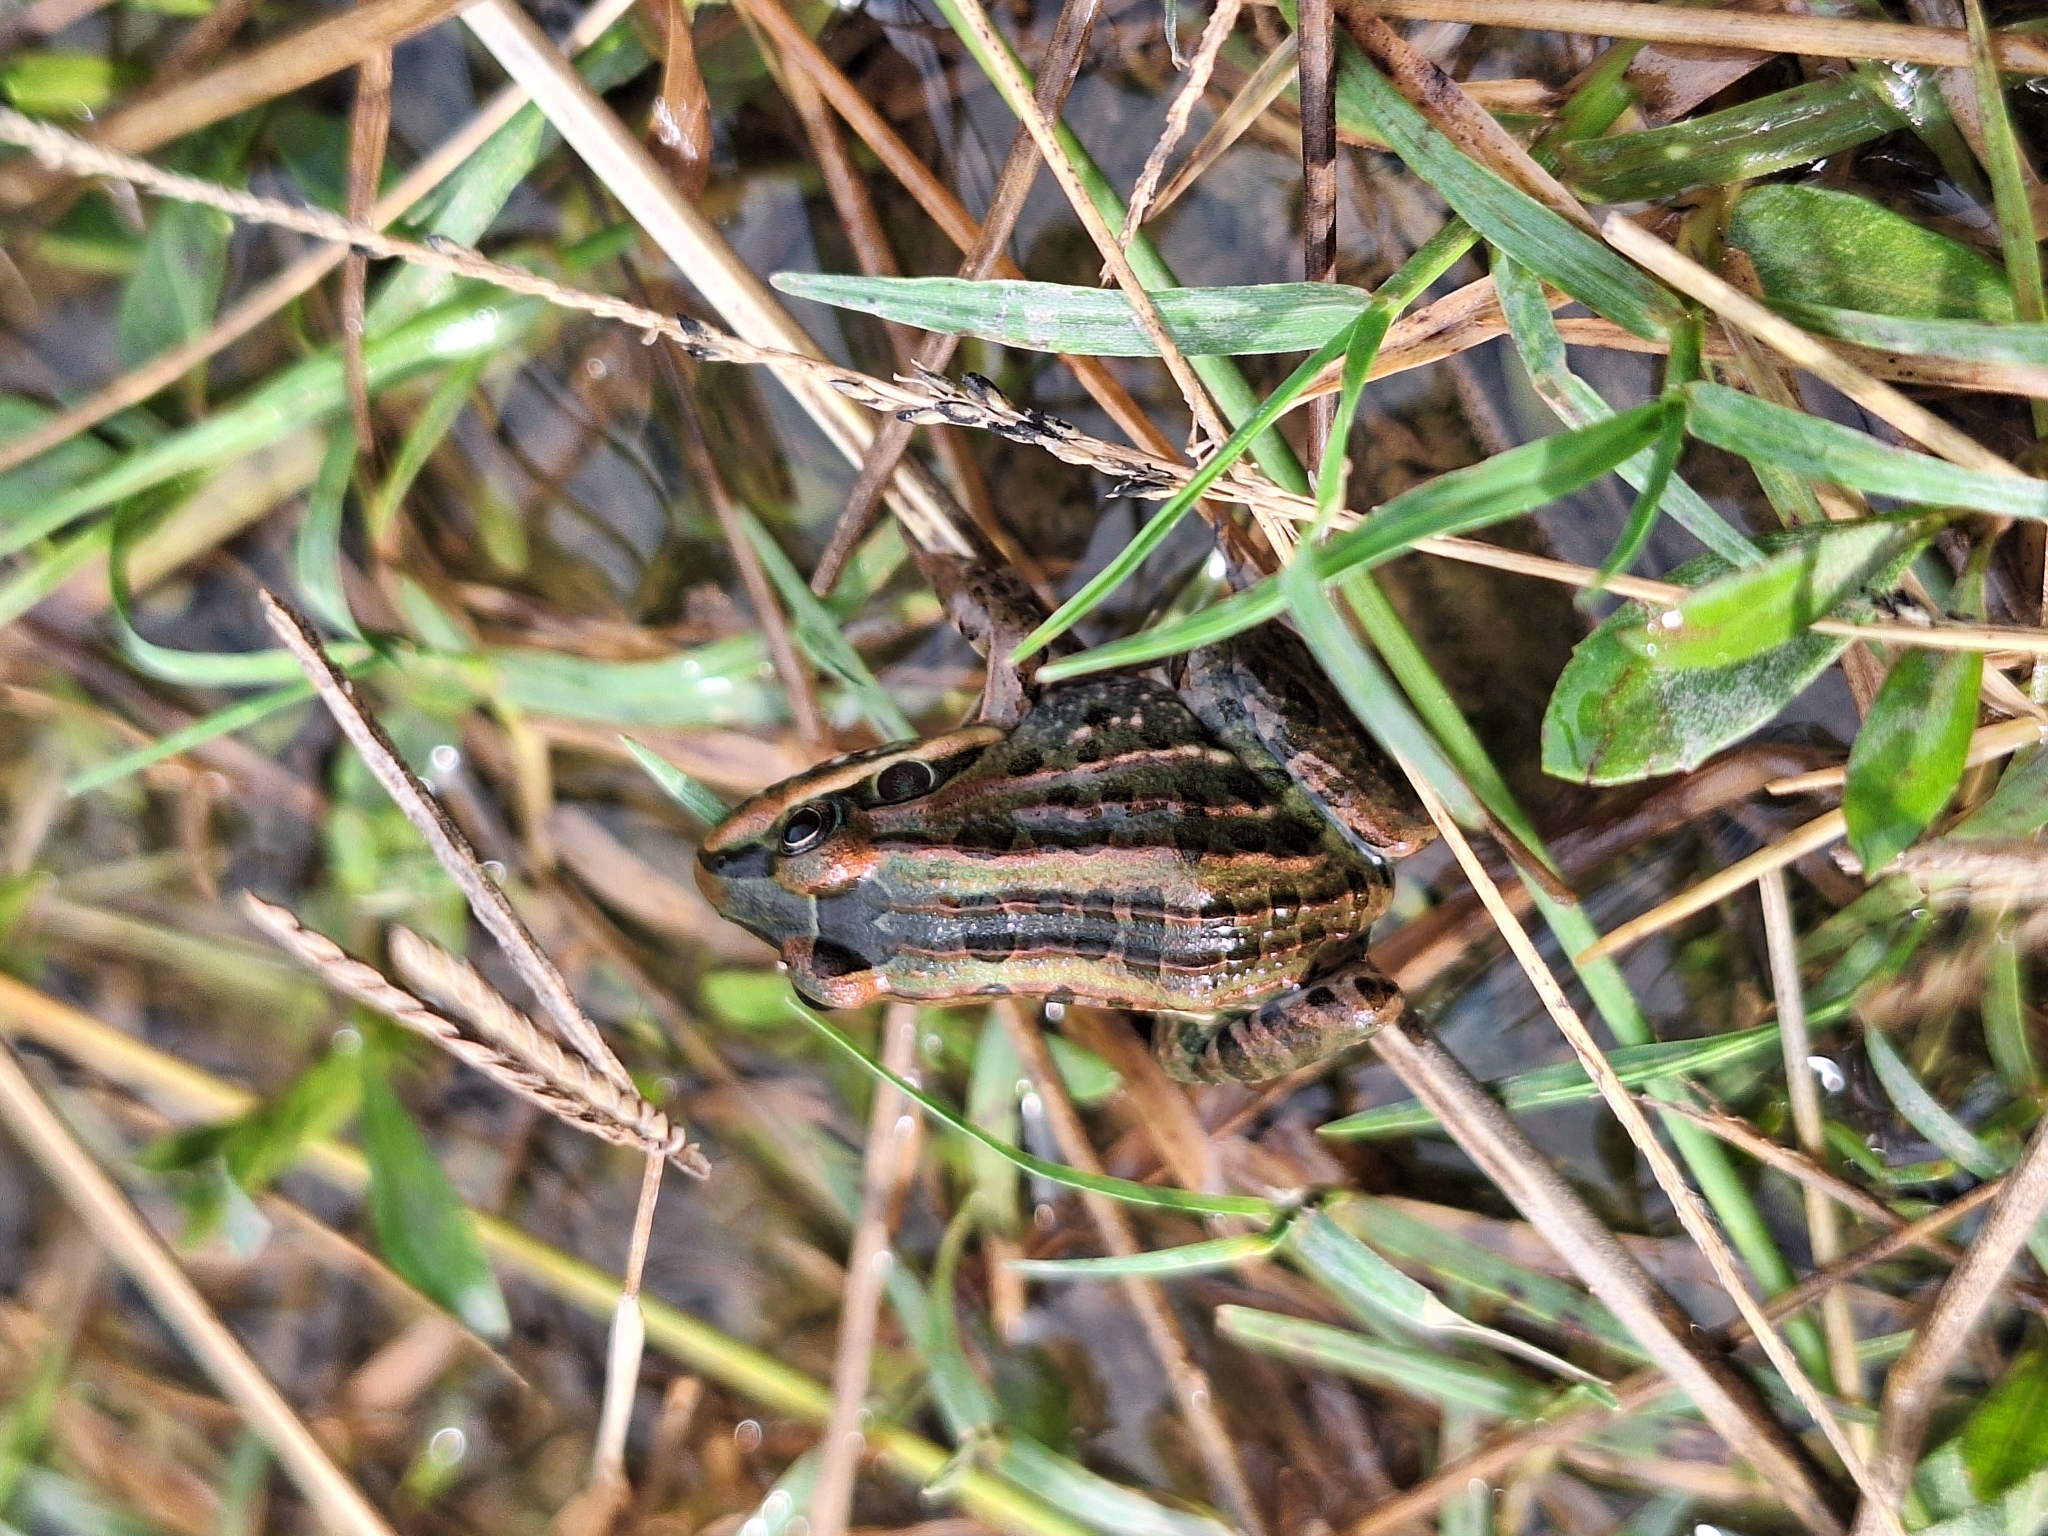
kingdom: Animalia
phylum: Chordata
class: Amphibia
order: Anura
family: Leptodactylidae
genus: Leptodactylus
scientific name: Leptodactylus luctator
